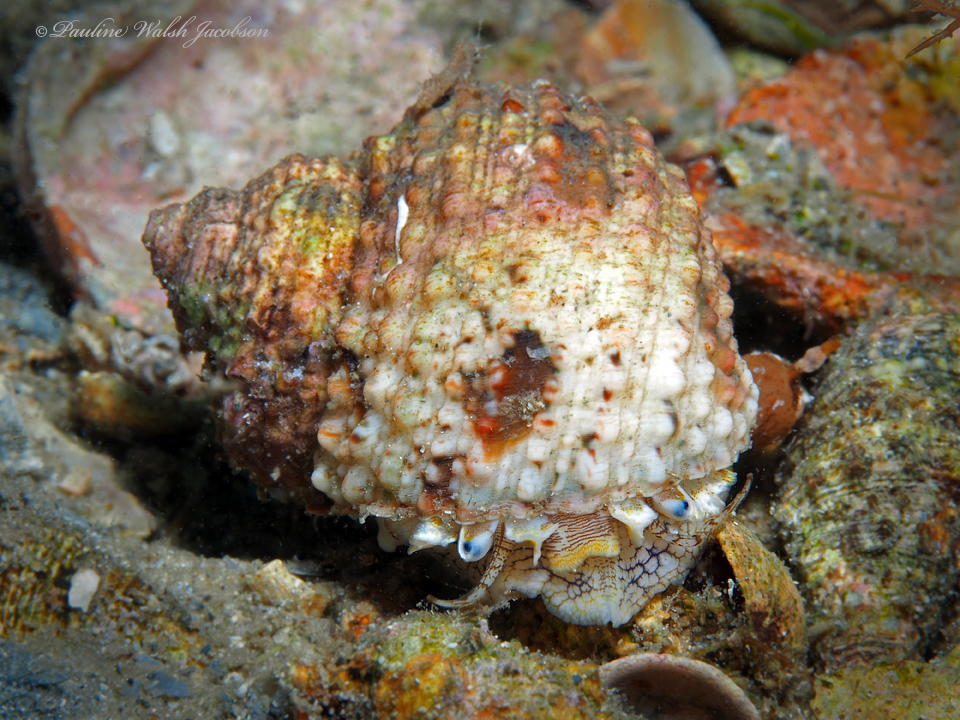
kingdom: Animalia
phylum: Mollusca
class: Gastropoda
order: Trochida
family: Turbinidae
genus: Turbo
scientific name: Turbo castanea
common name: Chestnut turban
